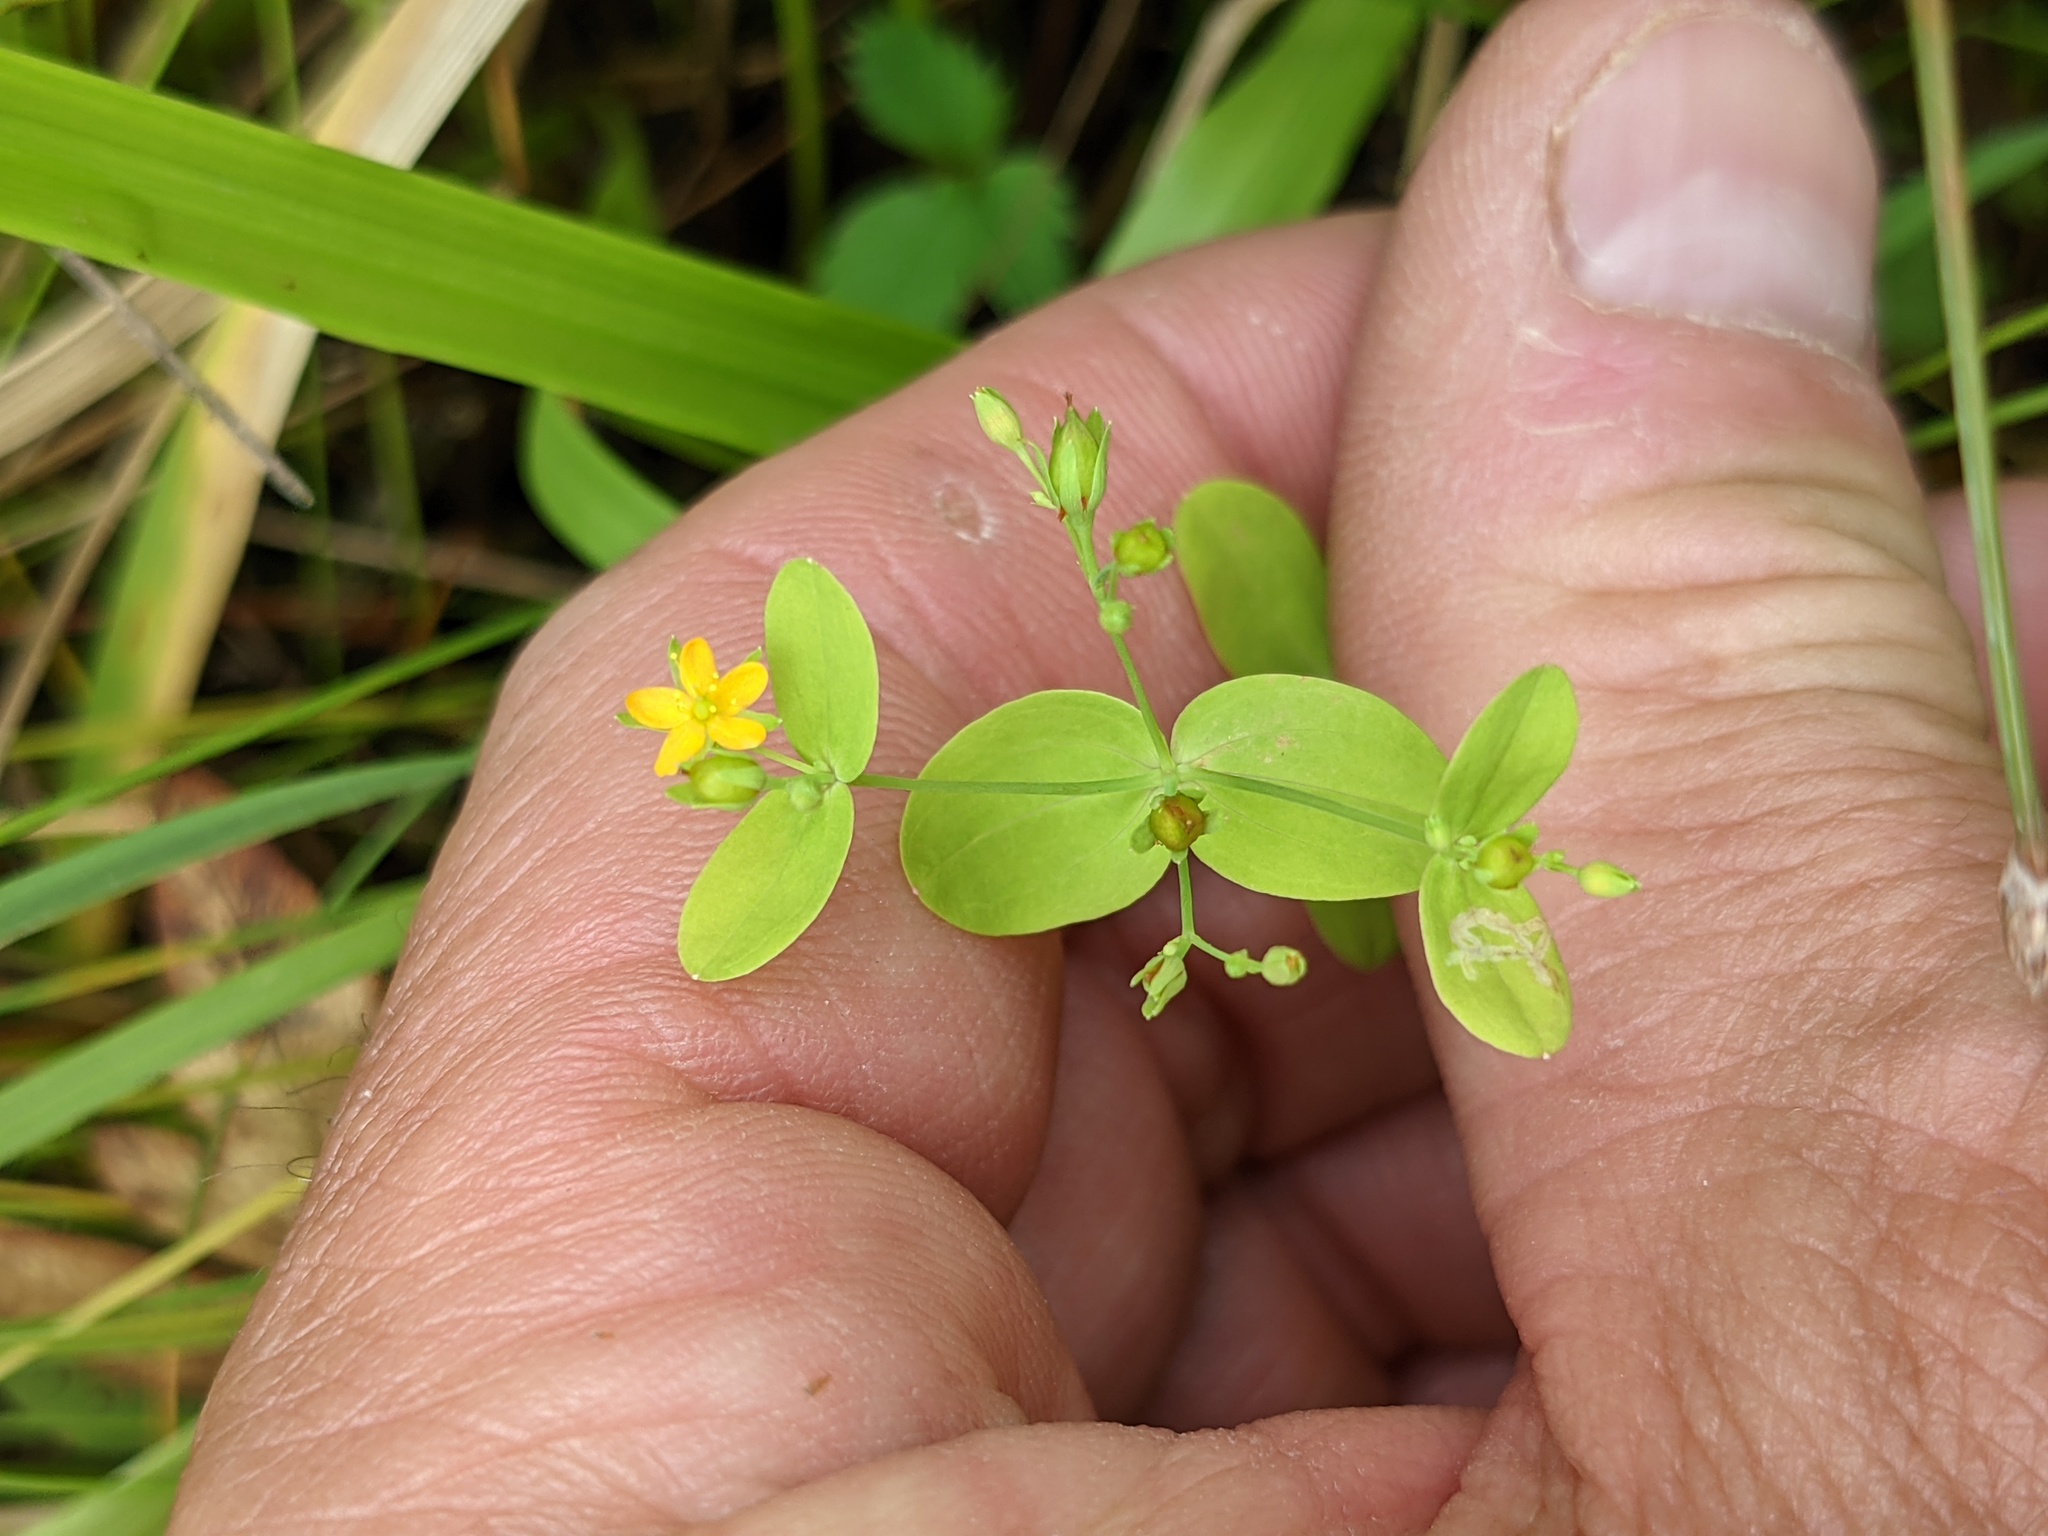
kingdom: Plantae
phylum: Tracheophyta
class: Magnoliopsida
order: Malpighiales
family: Hypericaceae
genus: Hypericum
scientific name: Hypericum mutilum
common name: Dwarf st. john's-wort
